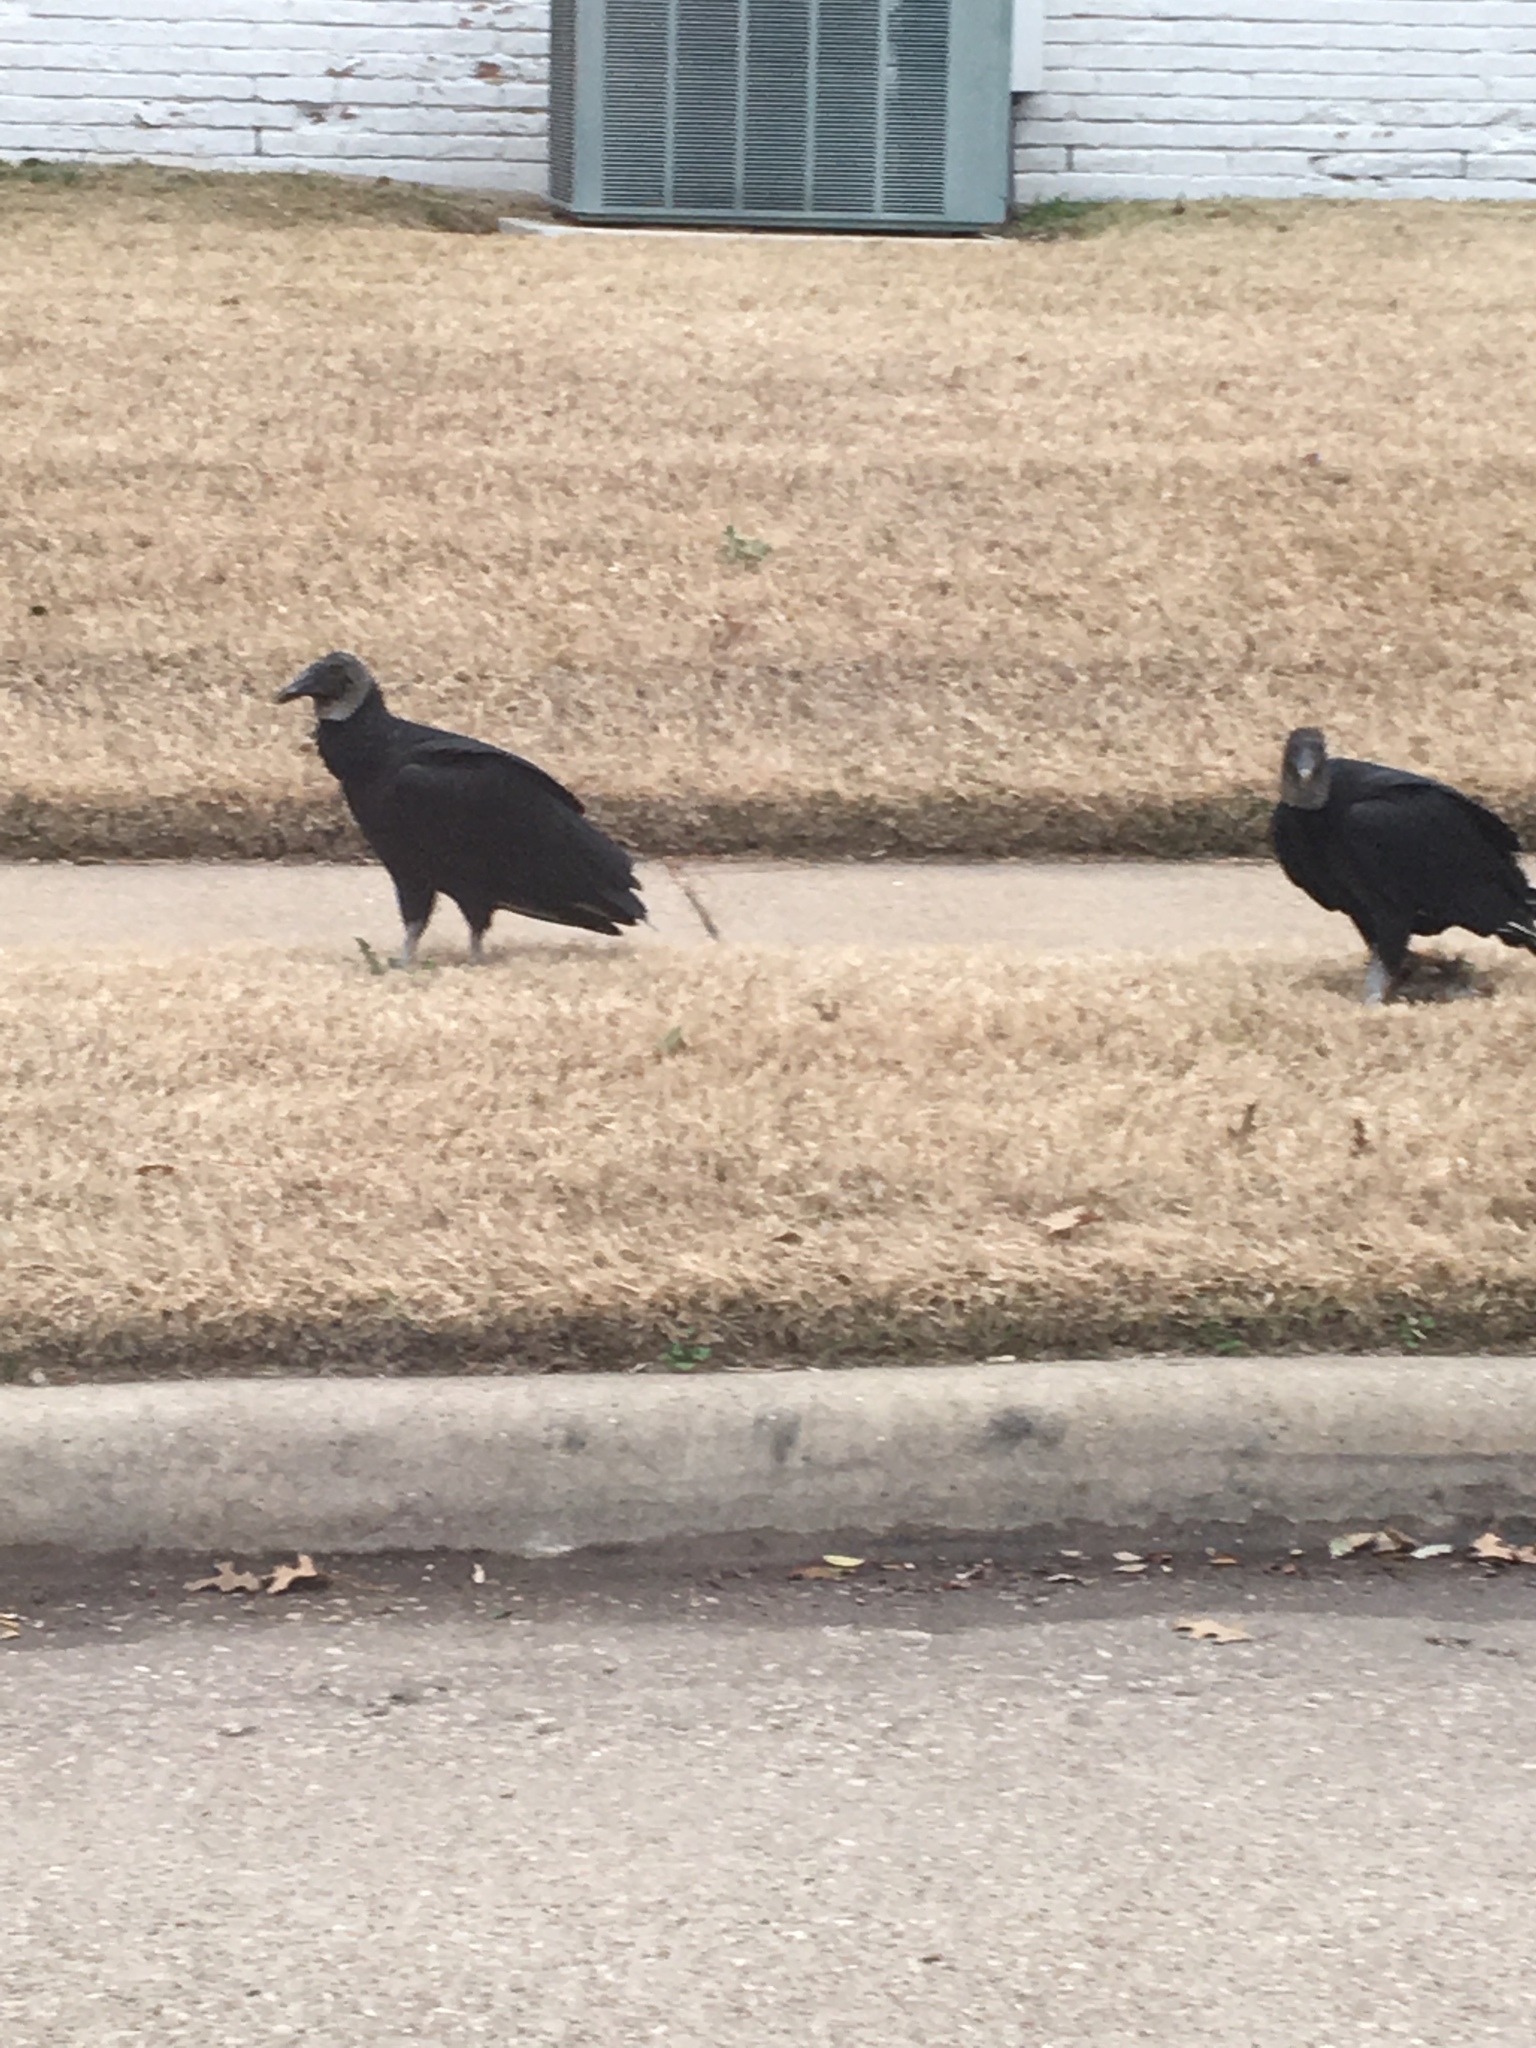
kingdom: Animalia
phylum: Chordata
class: Aves
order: Accipitriformes
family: Cathartidae
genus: Coragyps
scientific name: Coragyps atratus
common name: Black vulture
